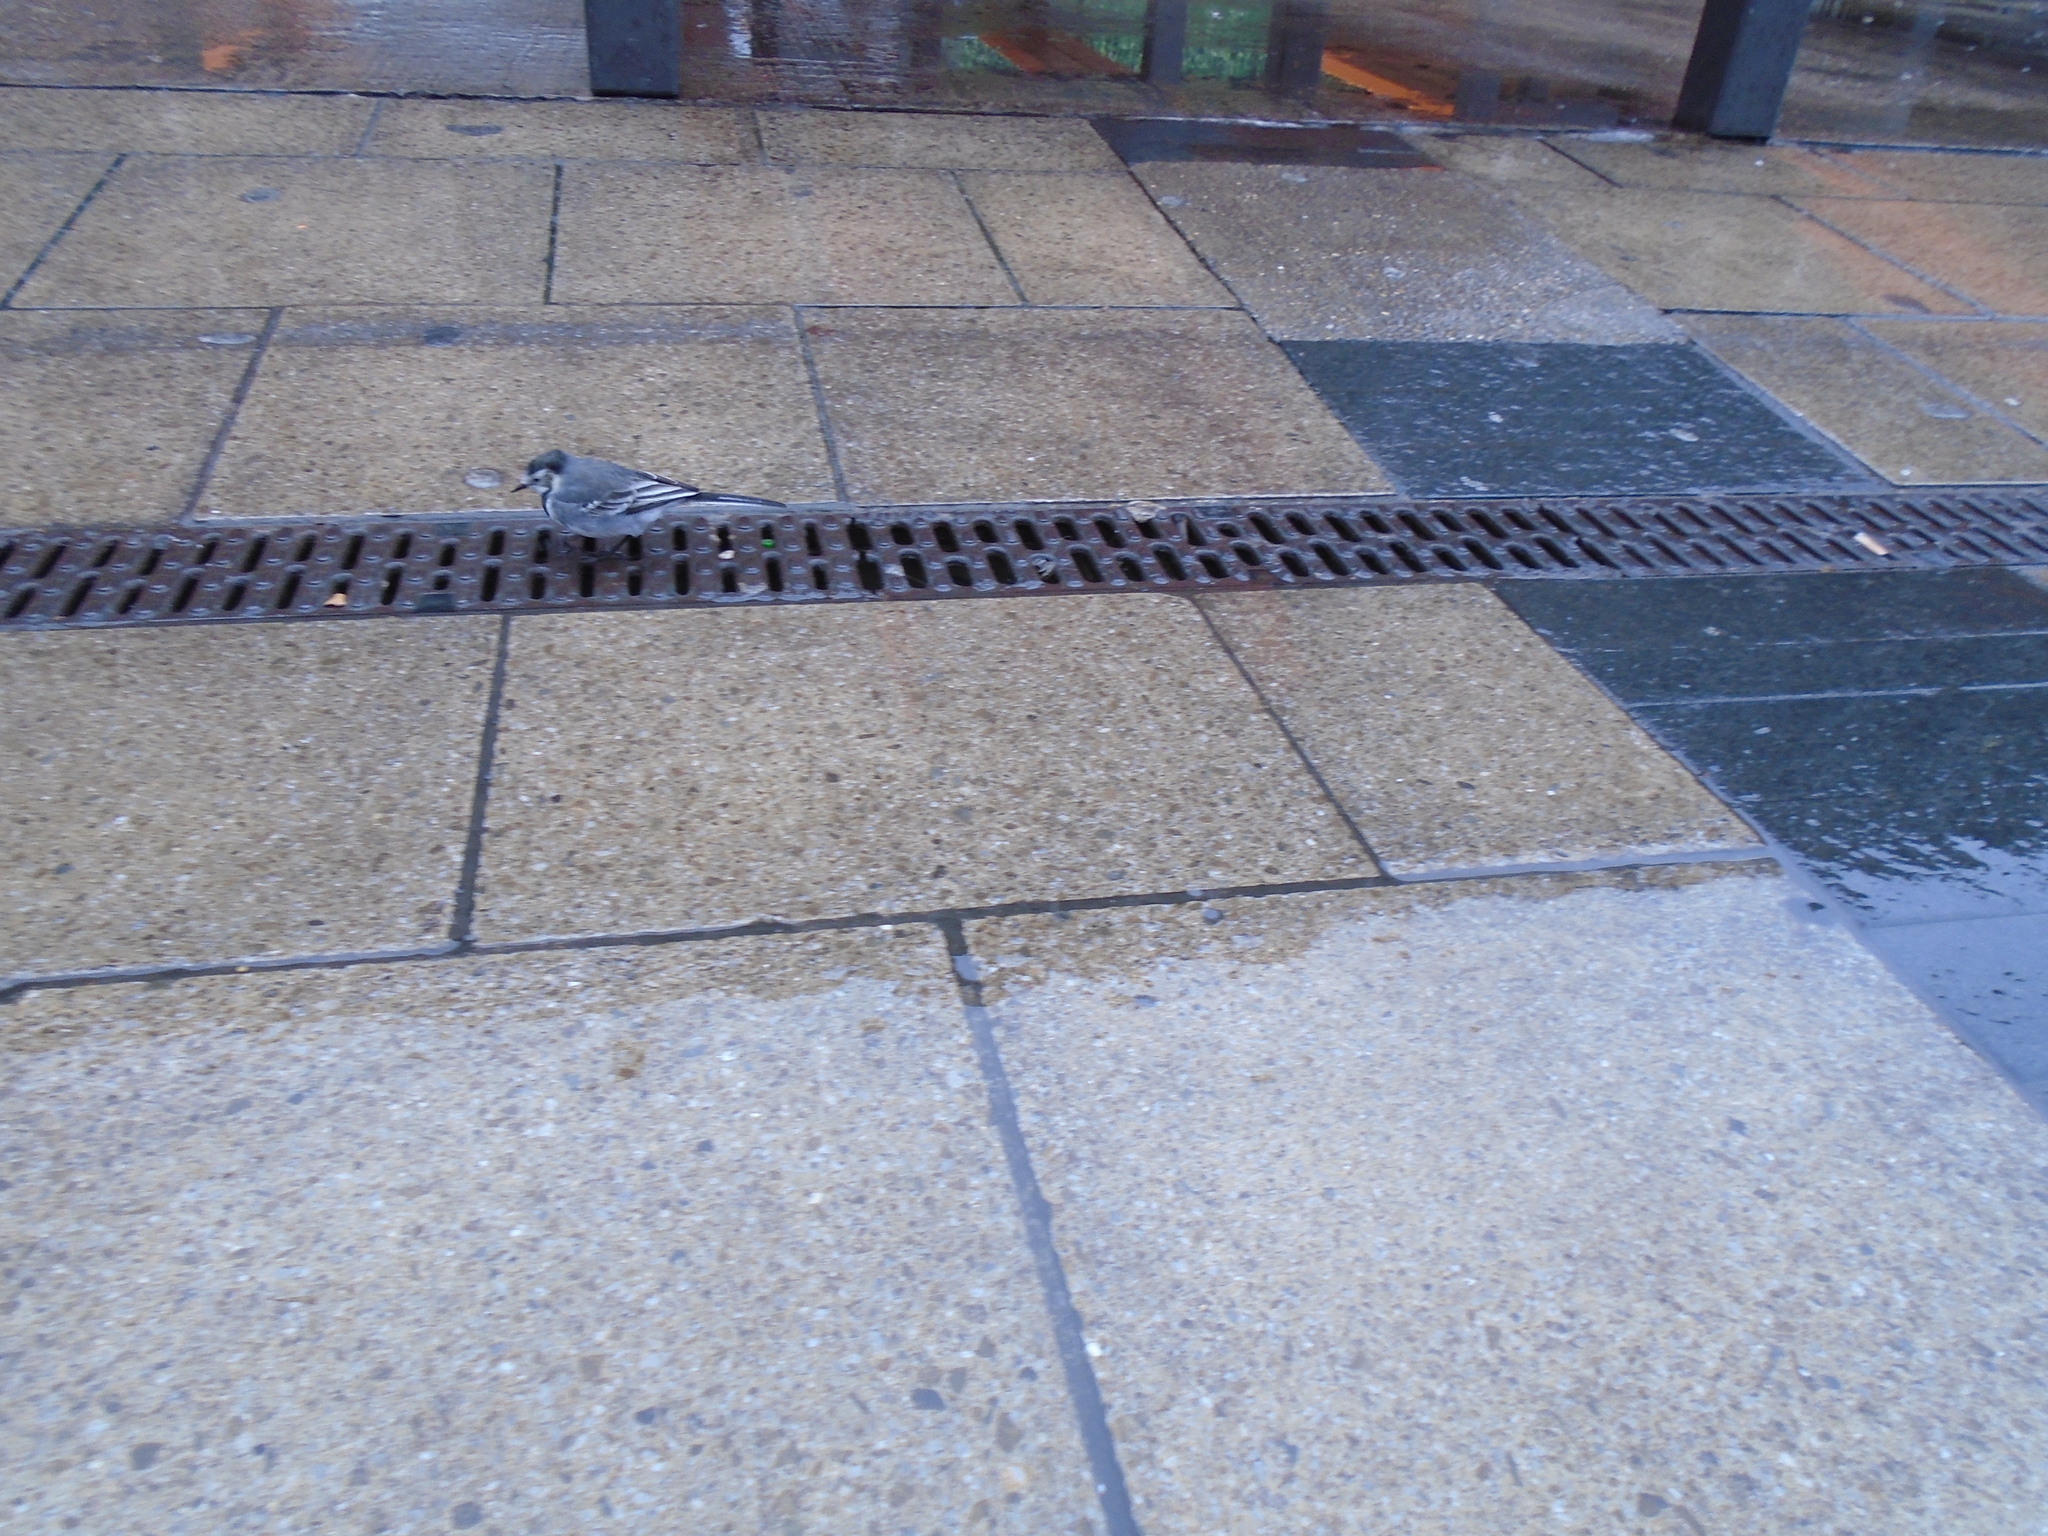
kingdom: Animalia
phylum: Chordata
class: Aves
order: Passeriformes
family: Motacillidae
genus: Motacilla
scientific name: Motacilla alba
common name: White wagtail
